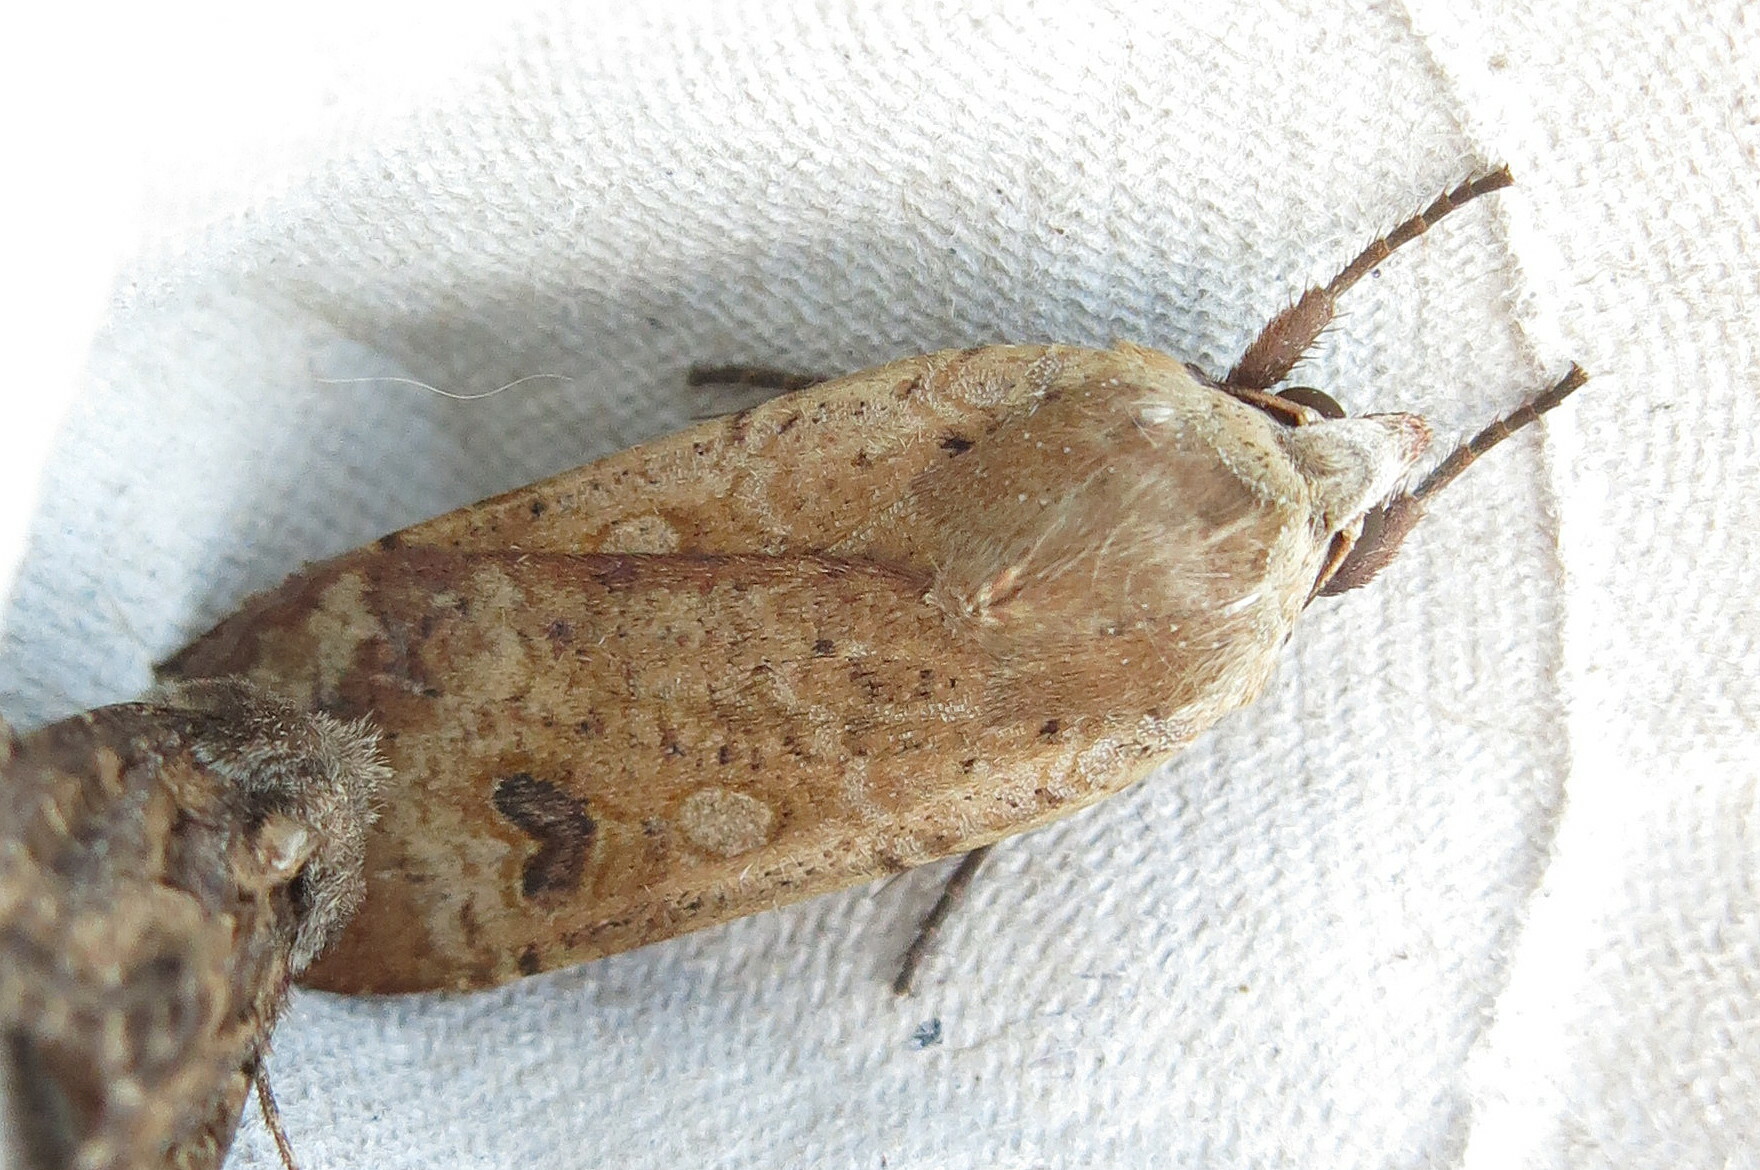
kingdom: Animalia
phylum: Arthropoda
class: Insecta
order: Lepidoptera
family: Noctuidae
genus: Noctua
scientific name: Noctua pronuba
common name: Large yellow underwing
